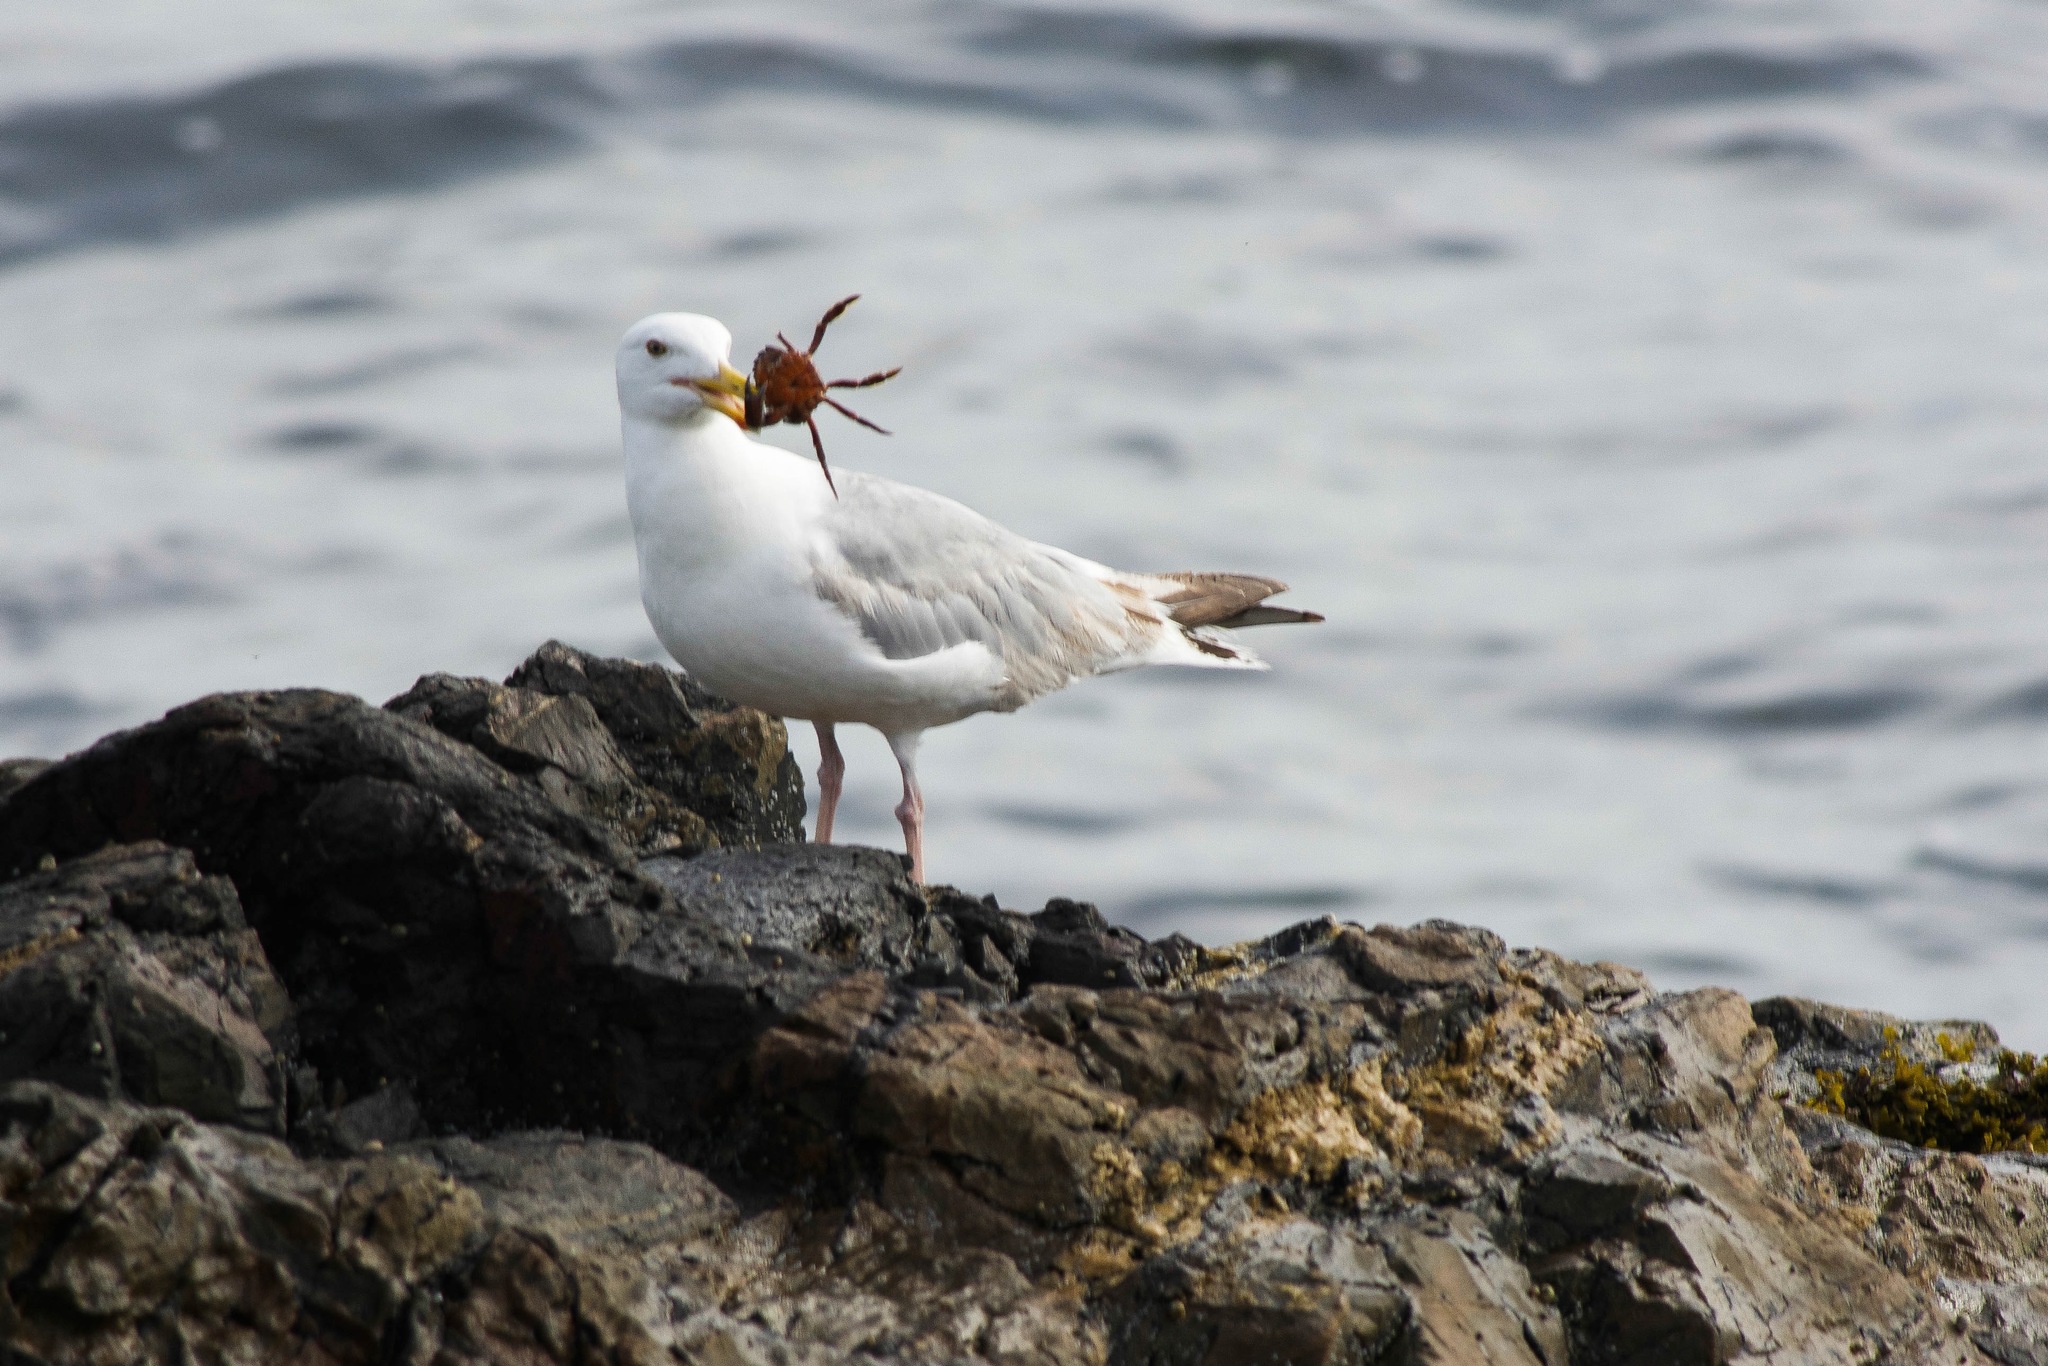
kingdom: Animalia
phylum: Chordata
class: Aves
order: Charadriiformes
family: Laridae
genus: Larus
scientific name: Larus argentatus
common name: Herring gull
